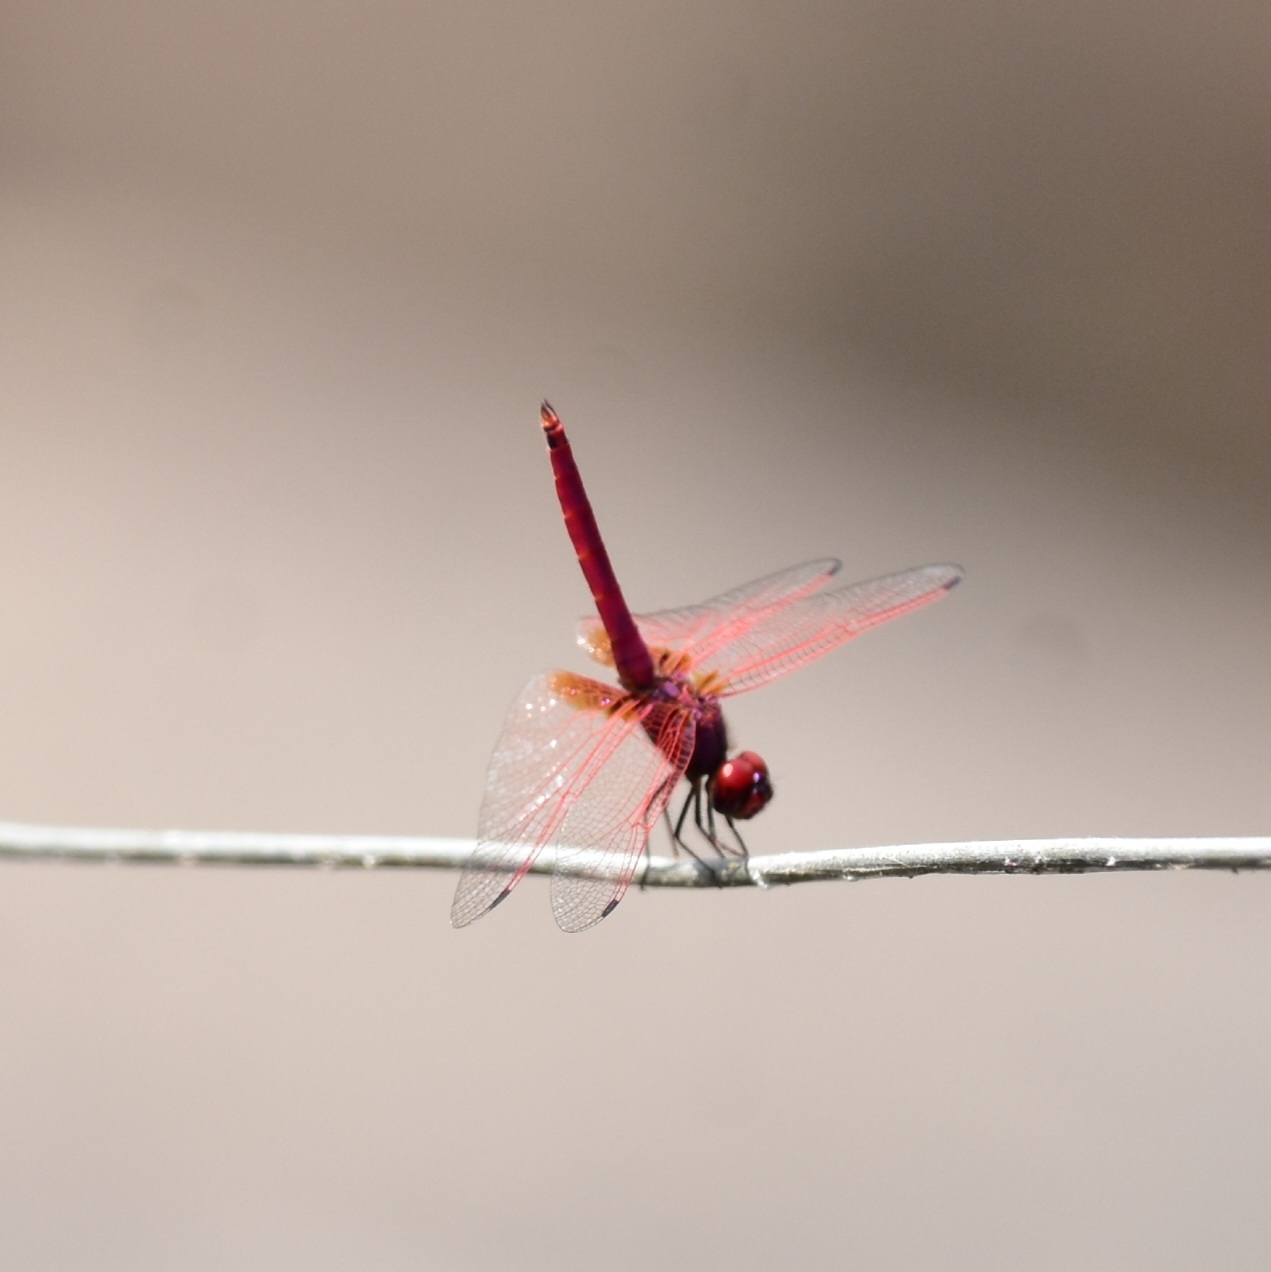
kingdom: Animalia
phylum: Arthropoda
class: Insecta
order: Odonata
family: Libellulidae
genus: Trithemis
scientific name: Trithemis aurora
